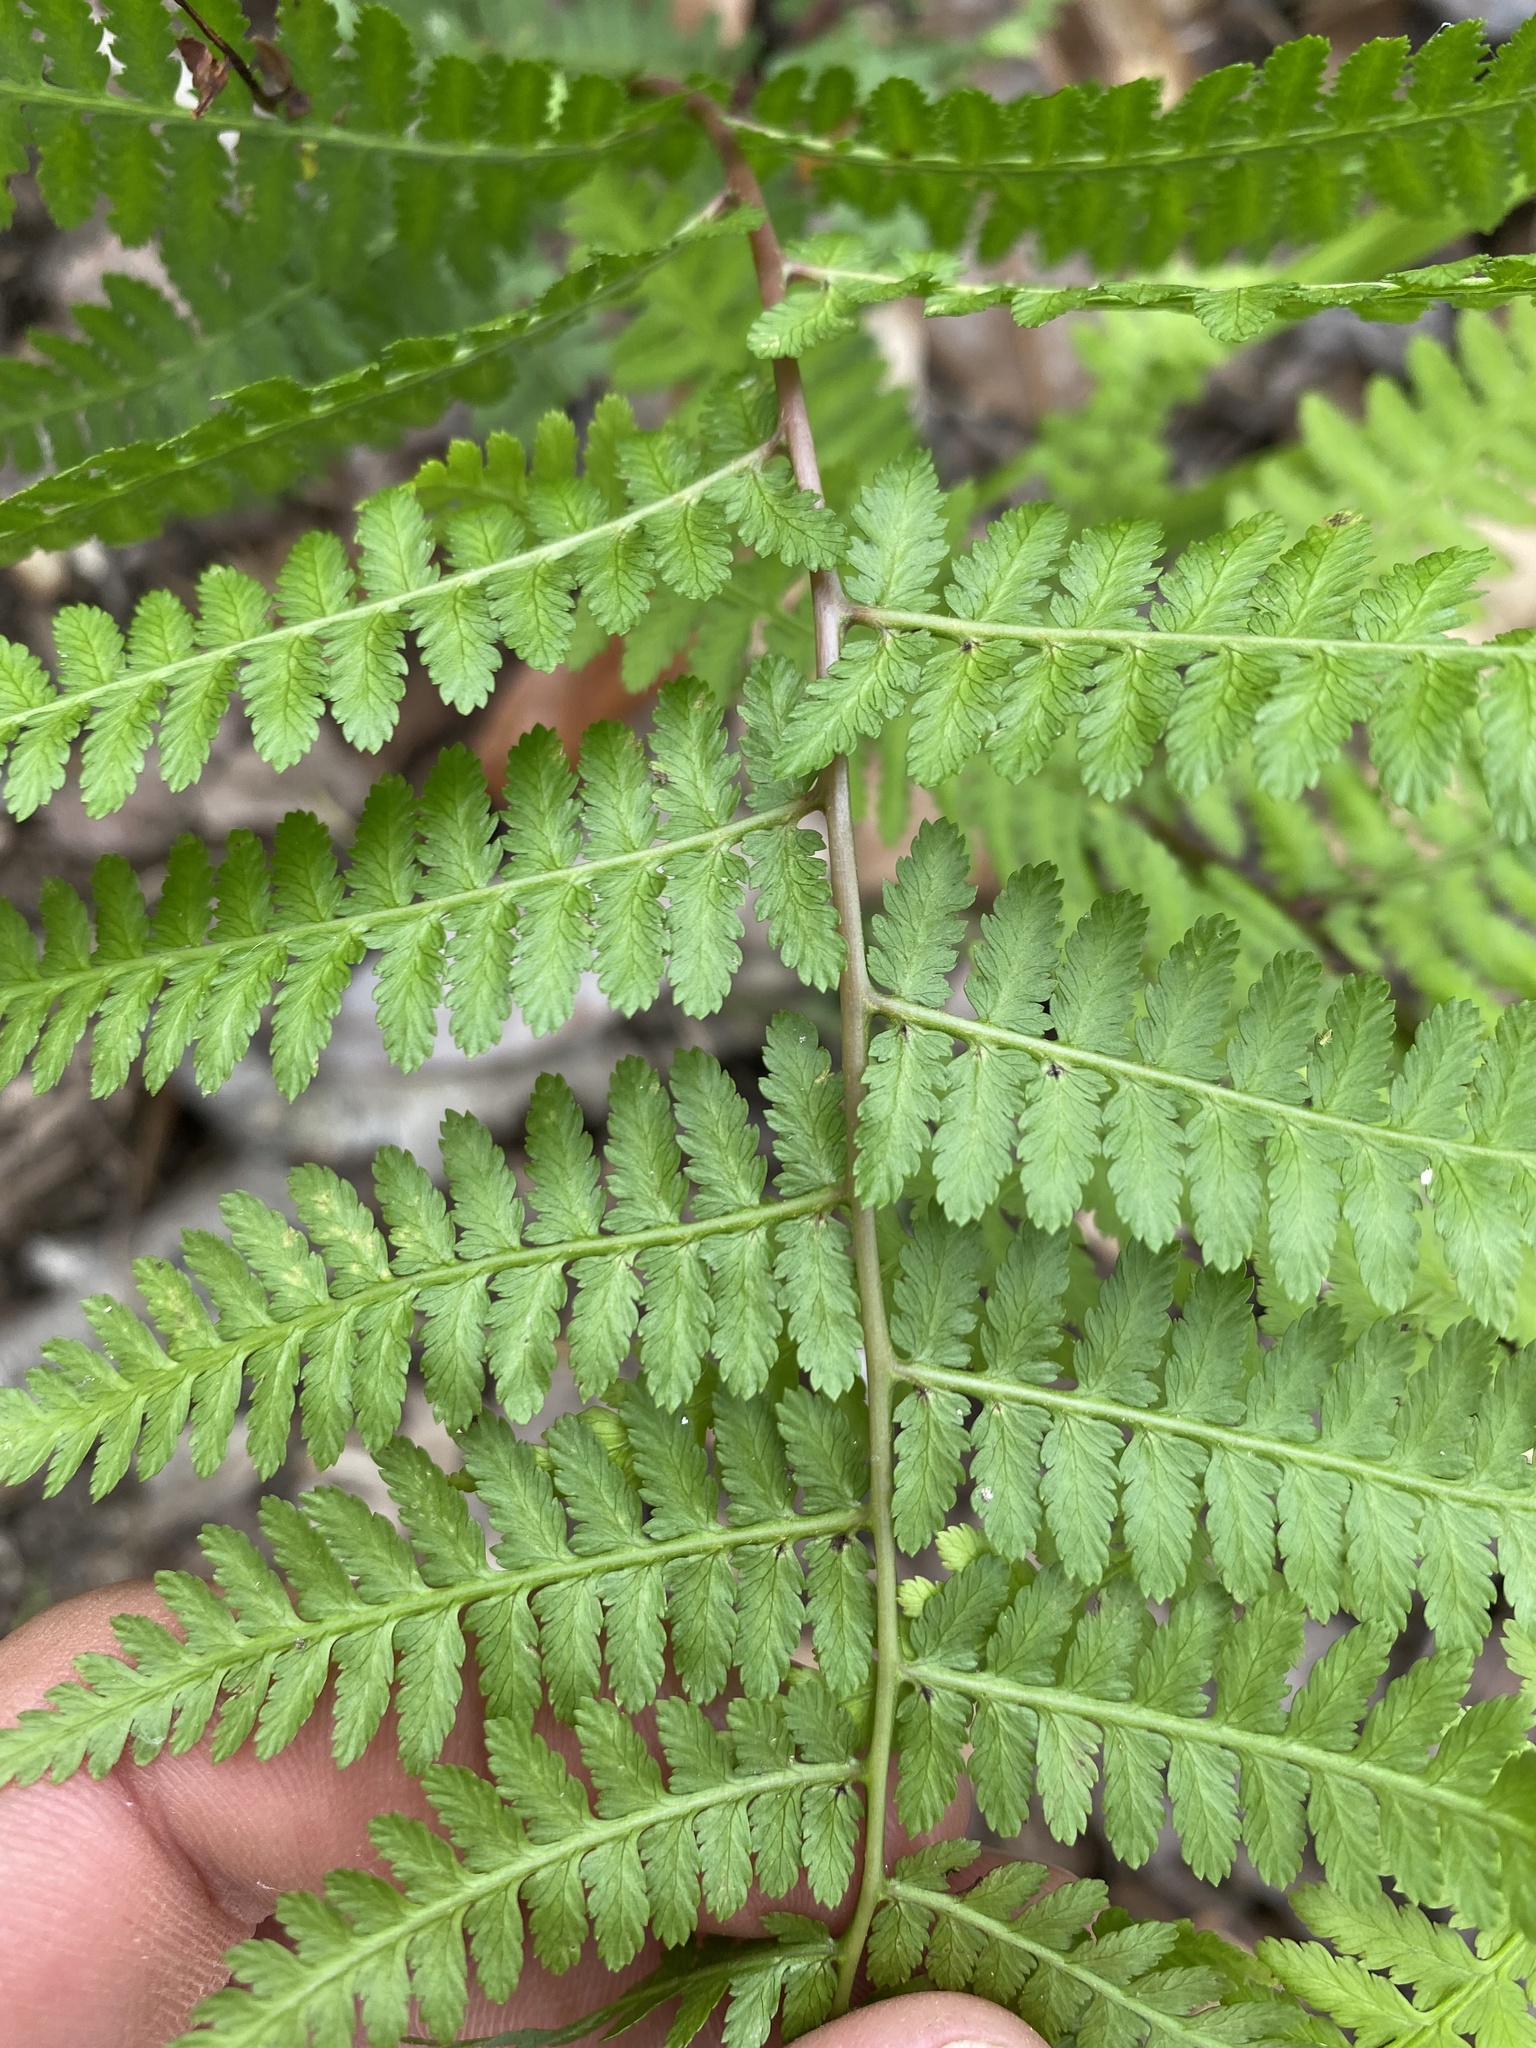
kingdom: Plantae
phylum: Tracheophyta
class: Polypodiopsida
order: Polypodiales
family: Athyriaceae
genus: Athyrium
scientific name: Athyrium asplenioides
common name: Southern lady fern
